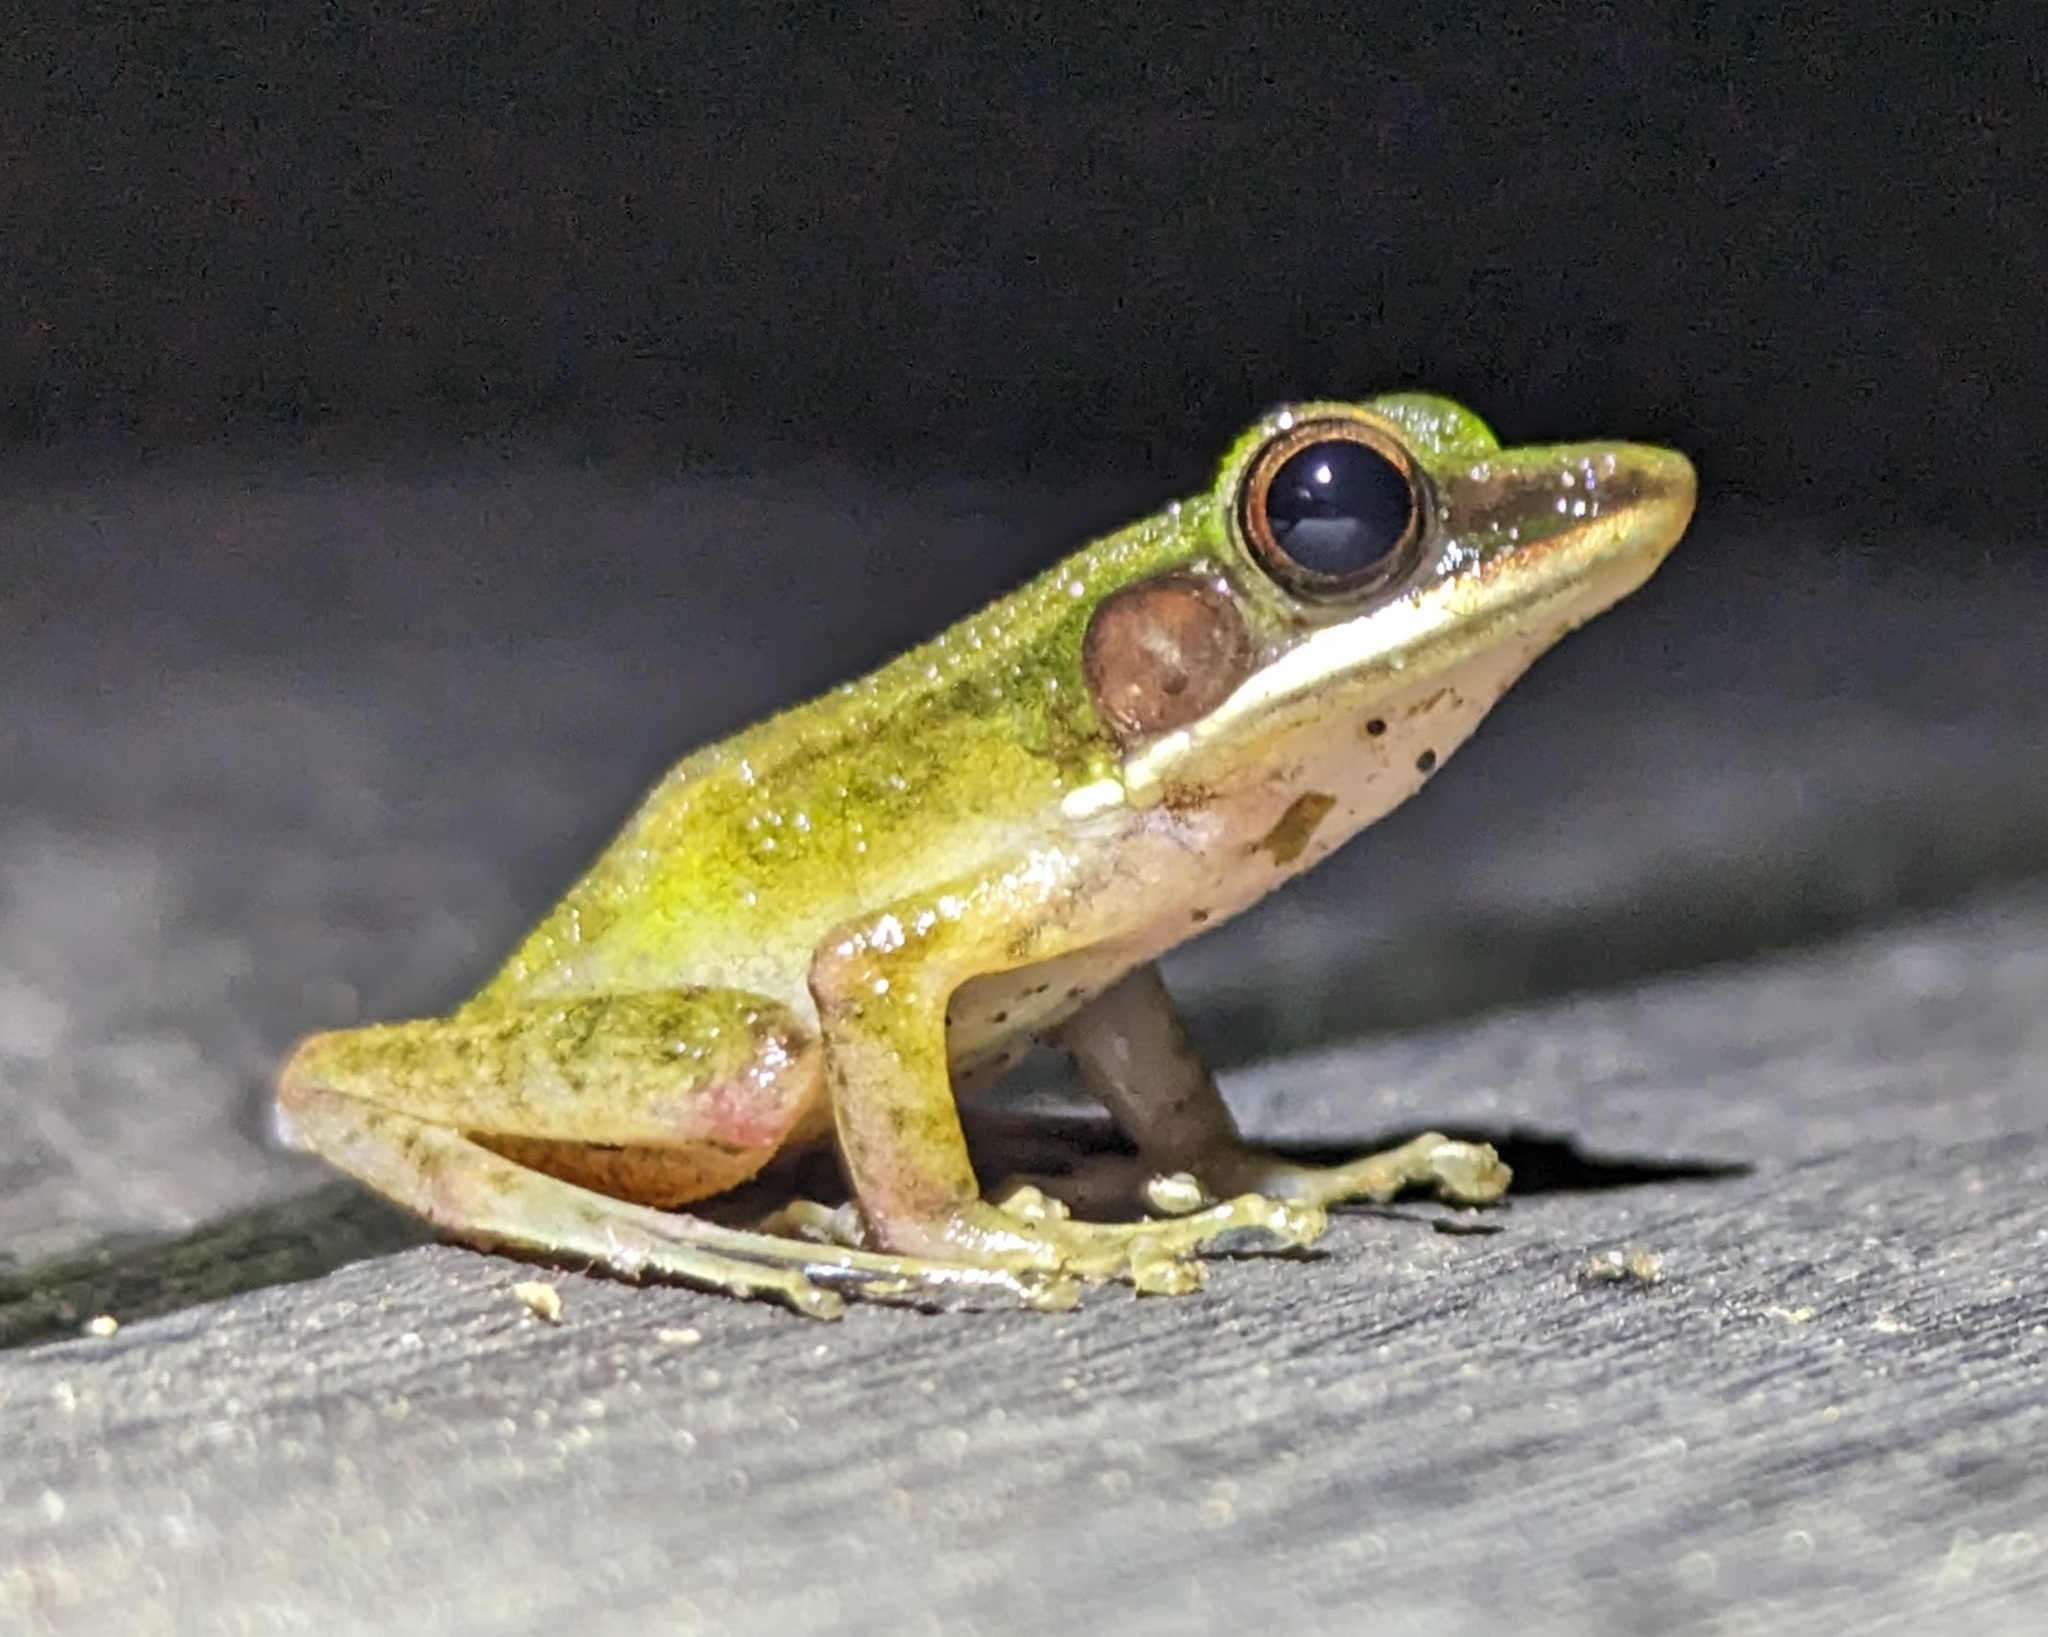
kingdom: Animalia
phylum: Chordata
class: Amphibia
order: Anura
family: Ranidae
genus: Chalcorana
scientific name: Chalcorana raniceps
